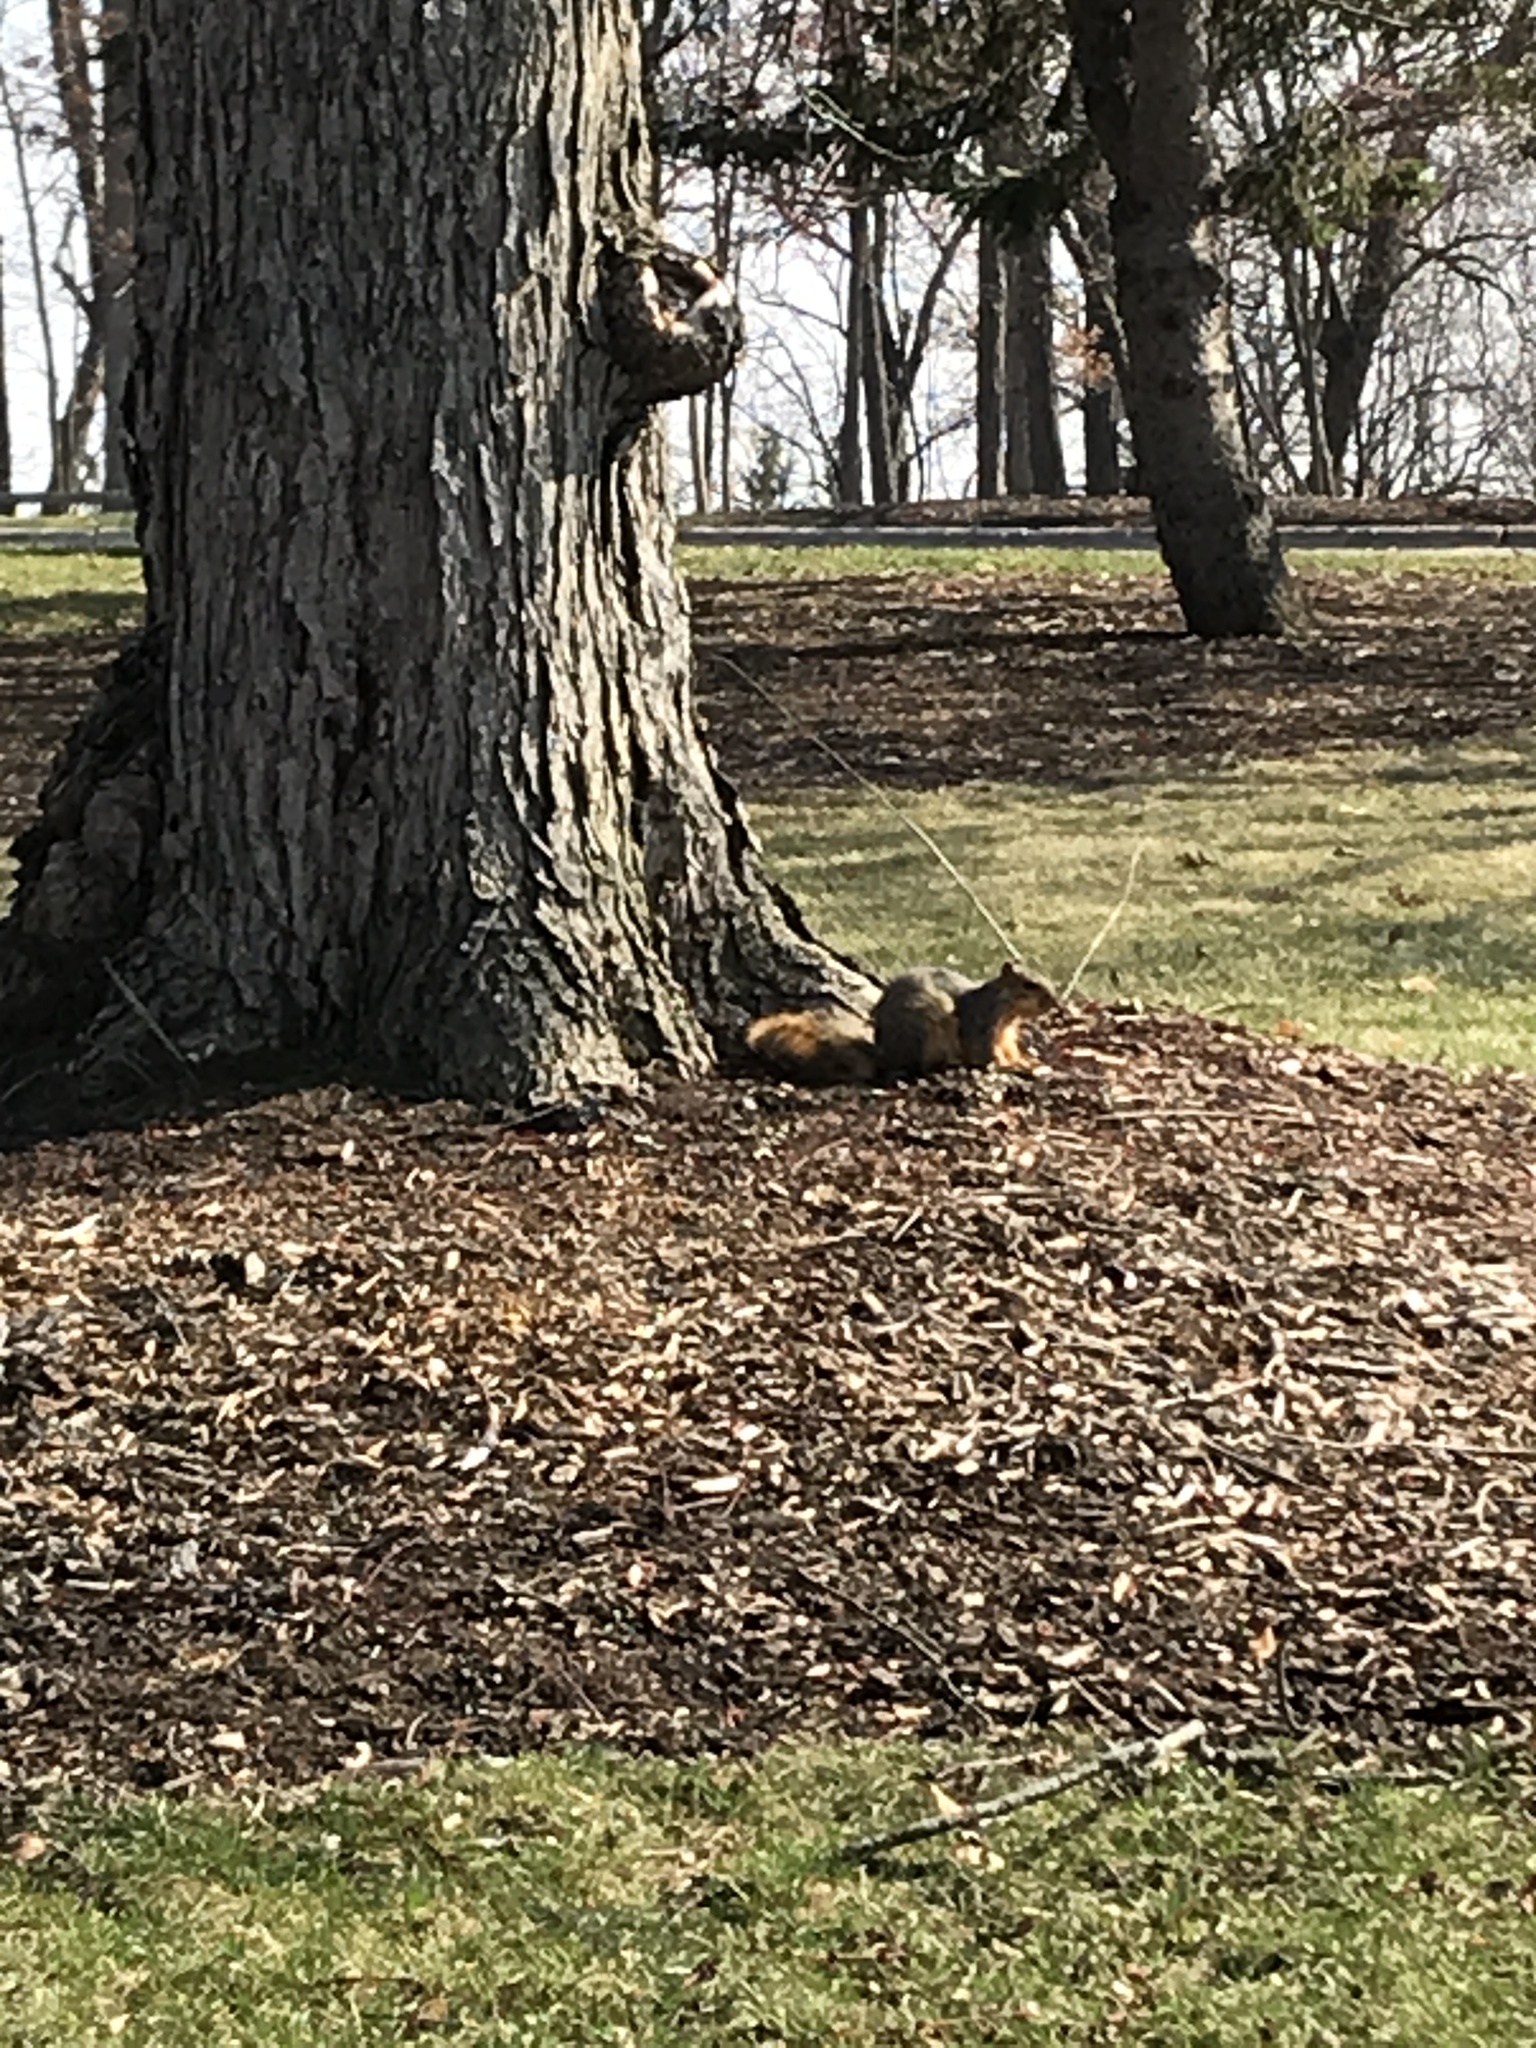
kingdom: Animalia
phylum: Chordata
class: Mammalia
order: Rodentia
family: Sciuridae
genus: Sciurus
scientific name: Sciurus niger
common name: Fox squirrel
